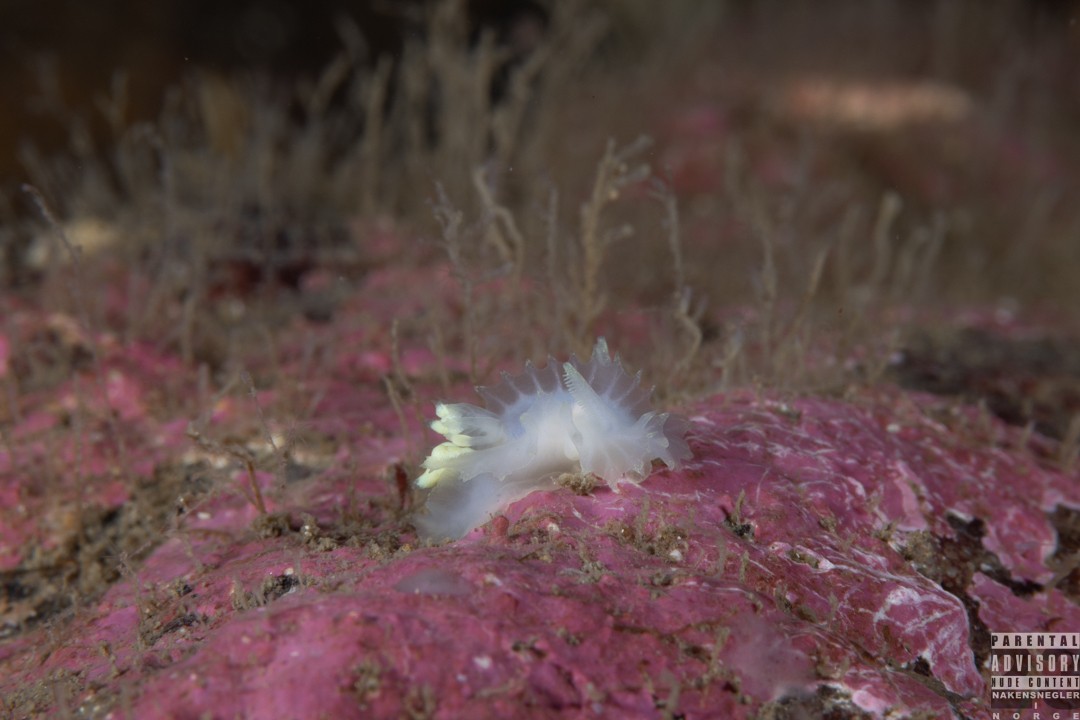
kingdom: Animalia
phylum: Mollusca
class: Gastropoda
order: Nudibranchia
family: Goniodorididae
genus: Lophodoris
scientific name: Lophodoris danielsseni
